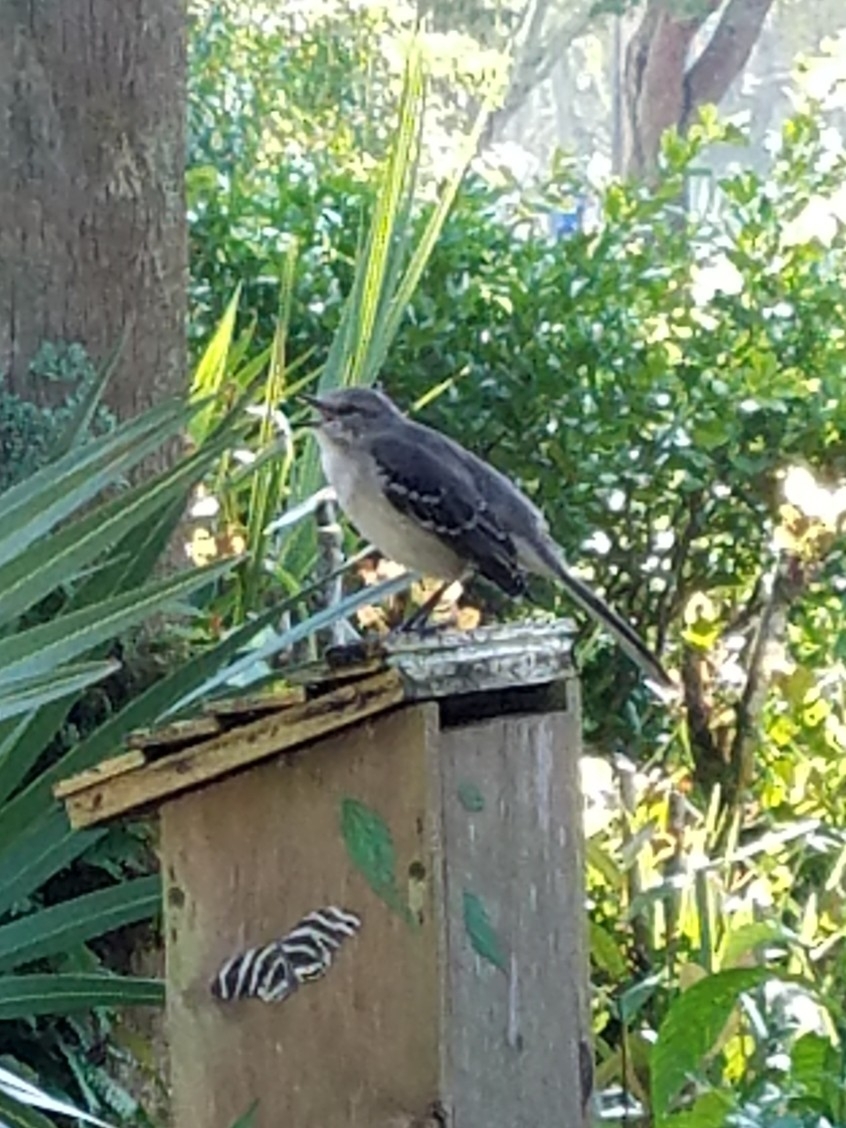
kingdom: Animalia
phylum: Chordata
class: Aves
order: Passeriformes
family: Mimidae
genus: Mimus
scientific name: Mimus polyglottos
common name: Northern mockingbird
